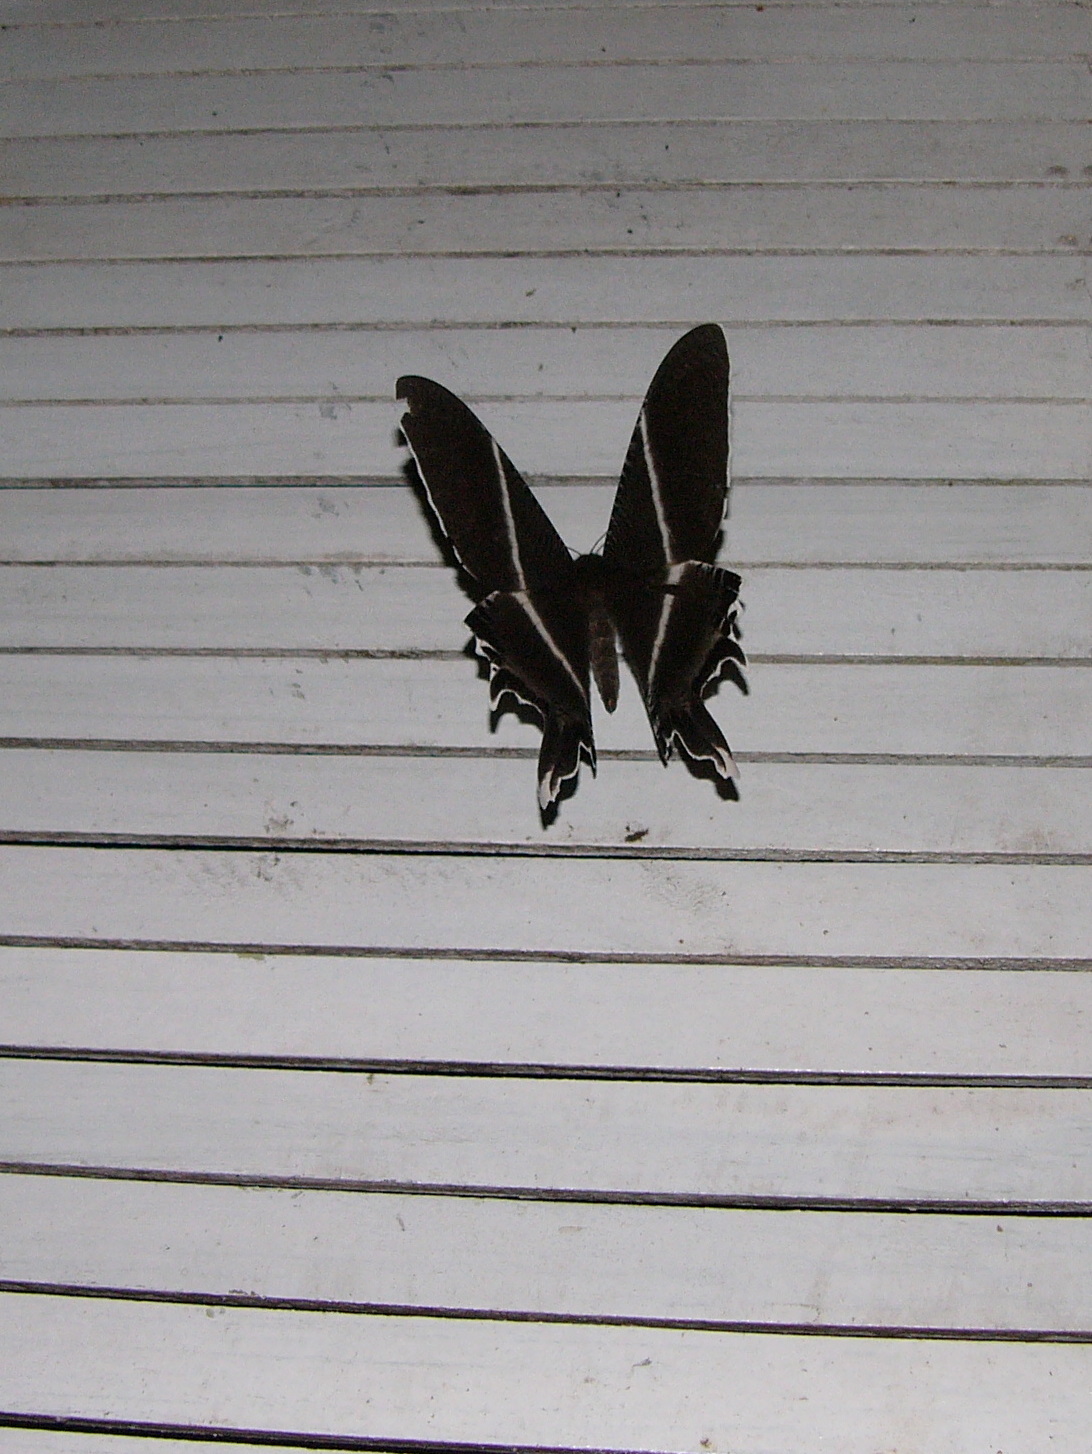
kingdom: Animalia
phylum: Arthropoda
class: Insecta
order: Lepidoptera
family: Uraniidae
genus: Lyssa
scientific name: Lyssa menoetius
